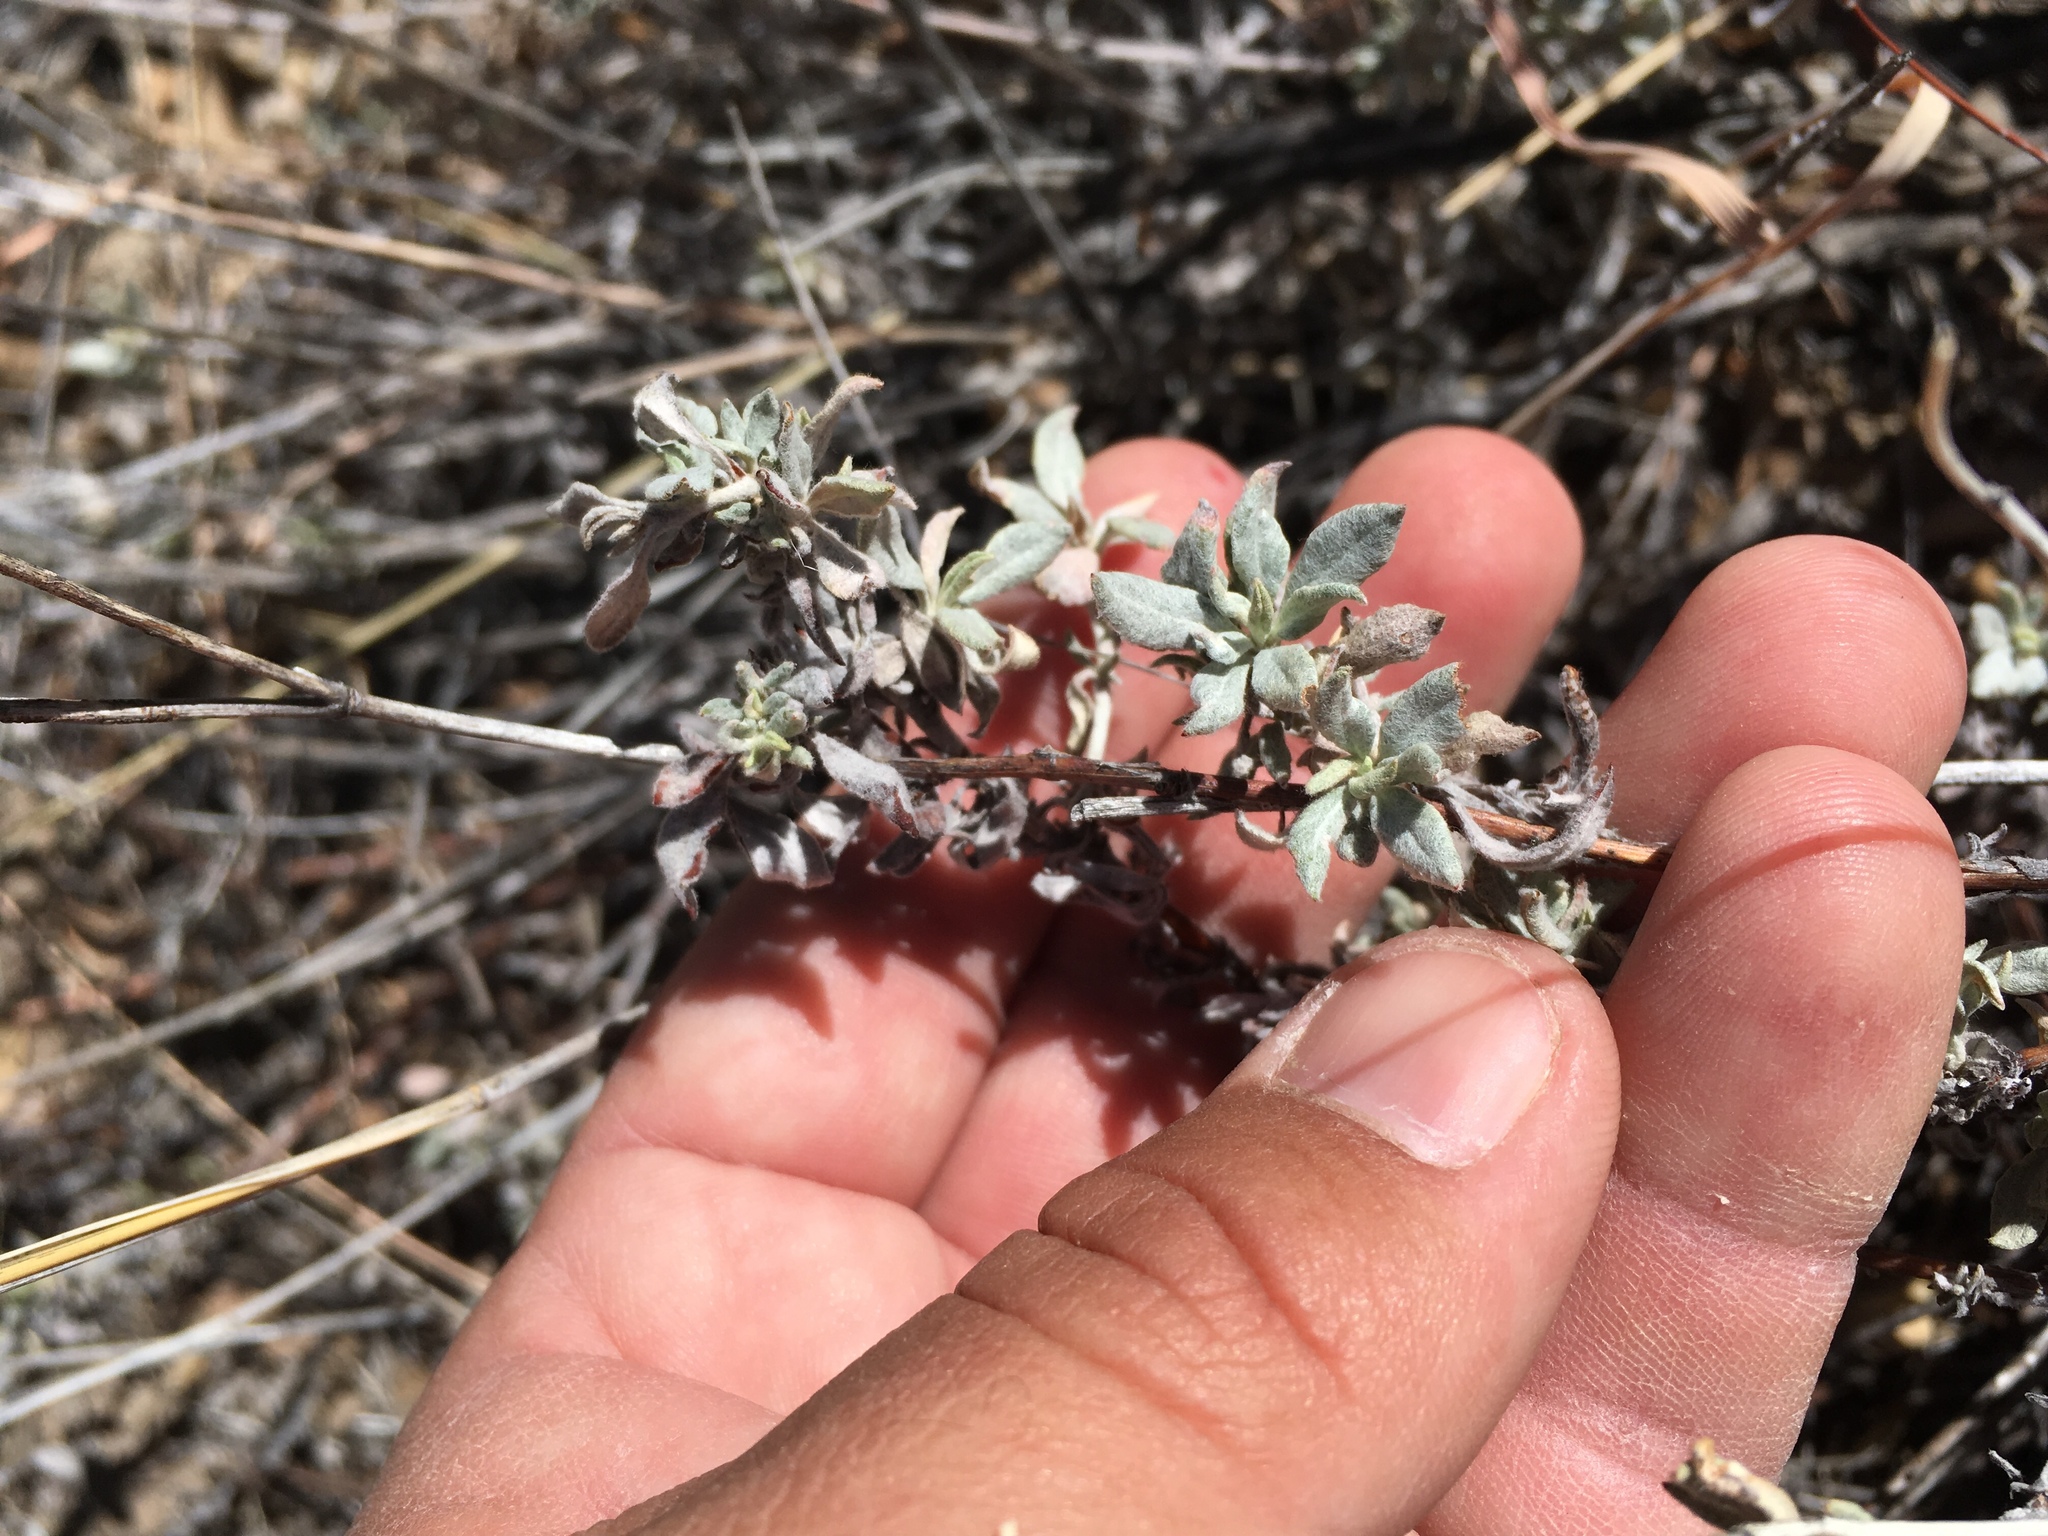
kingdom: Plantae
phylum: Tracheophyta
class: Magnoliopsida
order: Caryophyllales
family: Polygonaceae
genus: Eriogonum
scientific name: Eriogonum wrightii
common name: Bastard-sage
